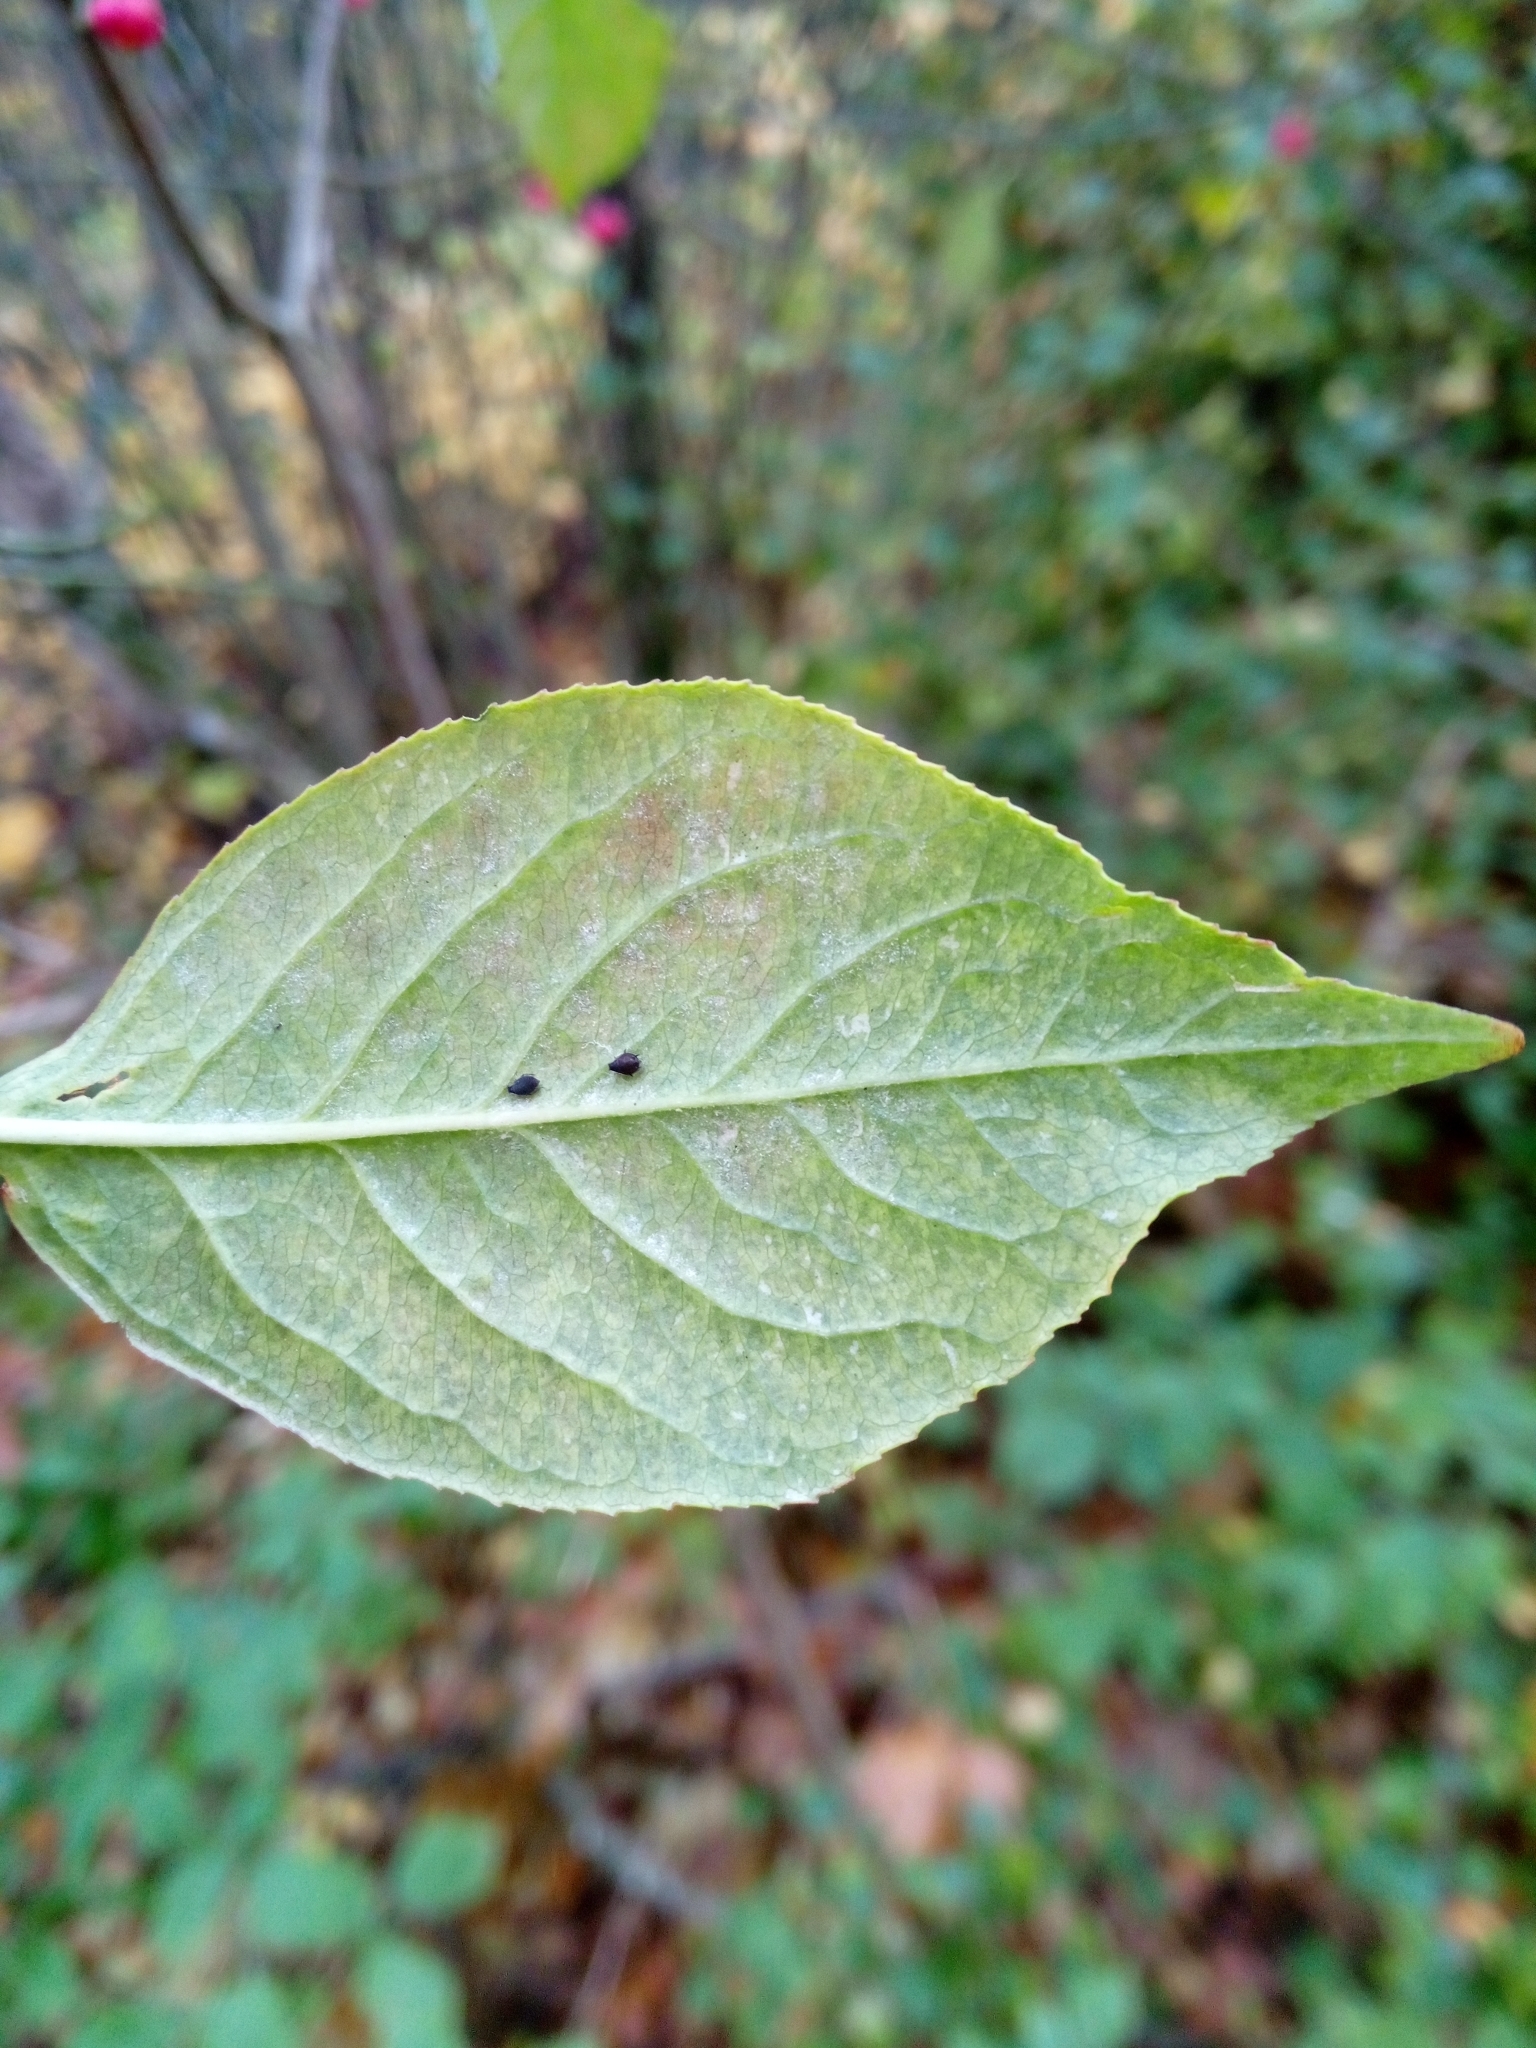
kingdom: Plantae
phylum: Tracheophyta
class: Magnoliopsida
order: Celastrales
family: Celastraceae
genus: Euonymus
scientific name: Euonymus europaeus
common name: Spindle
